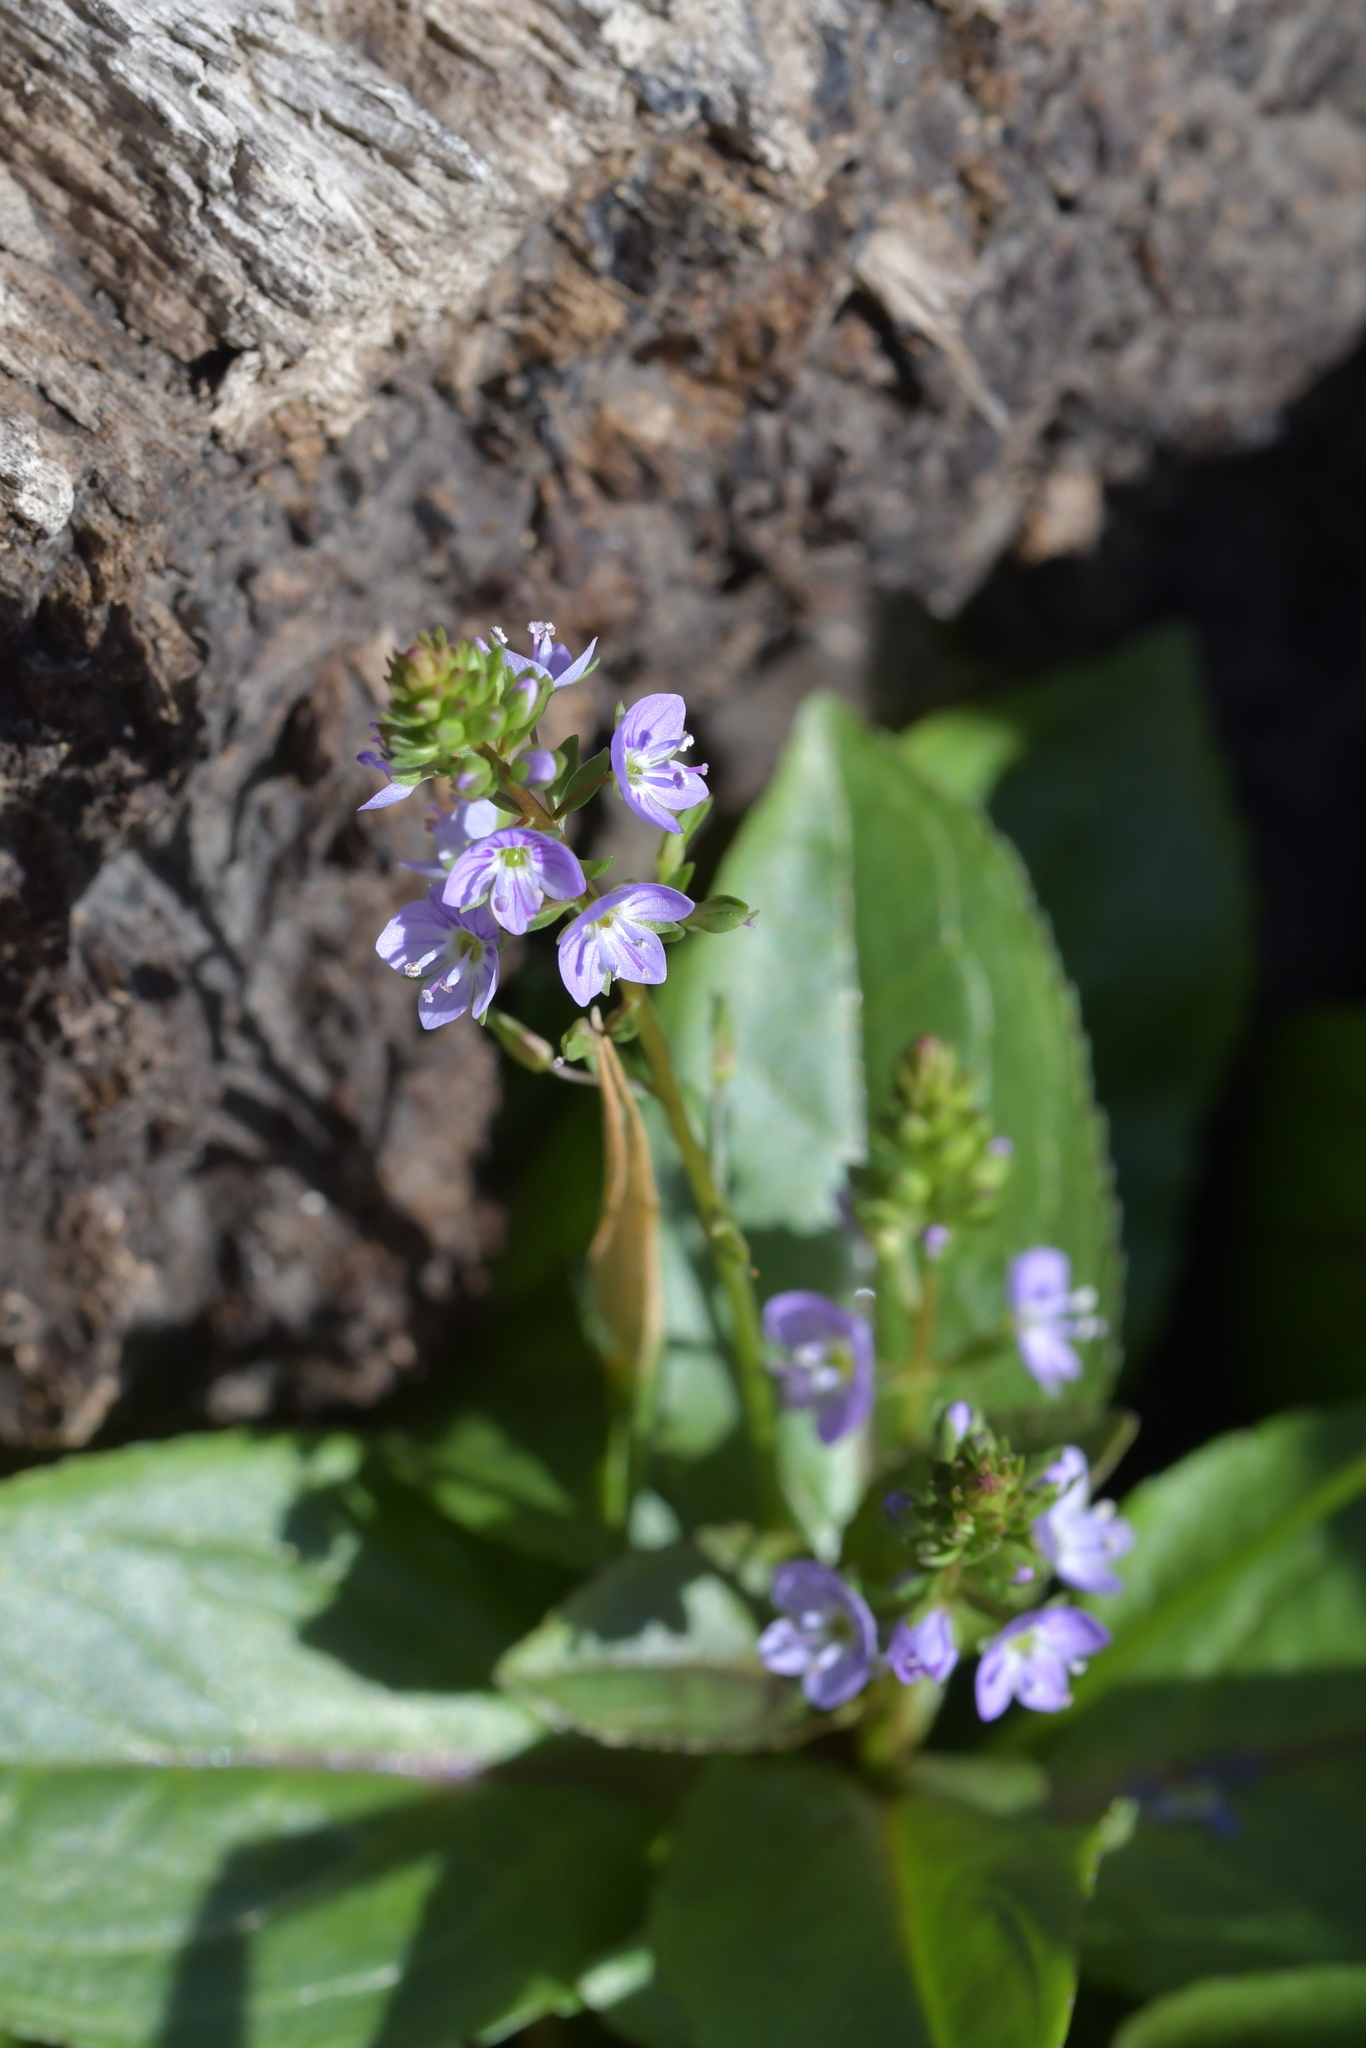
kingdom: Plantae
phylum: Tracheophyta
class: Magnoliopsida
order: Lamiales
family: Plantaginaceae
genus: Veronica
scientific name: Veronica anagallis-aquatica
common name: Water speedwell
